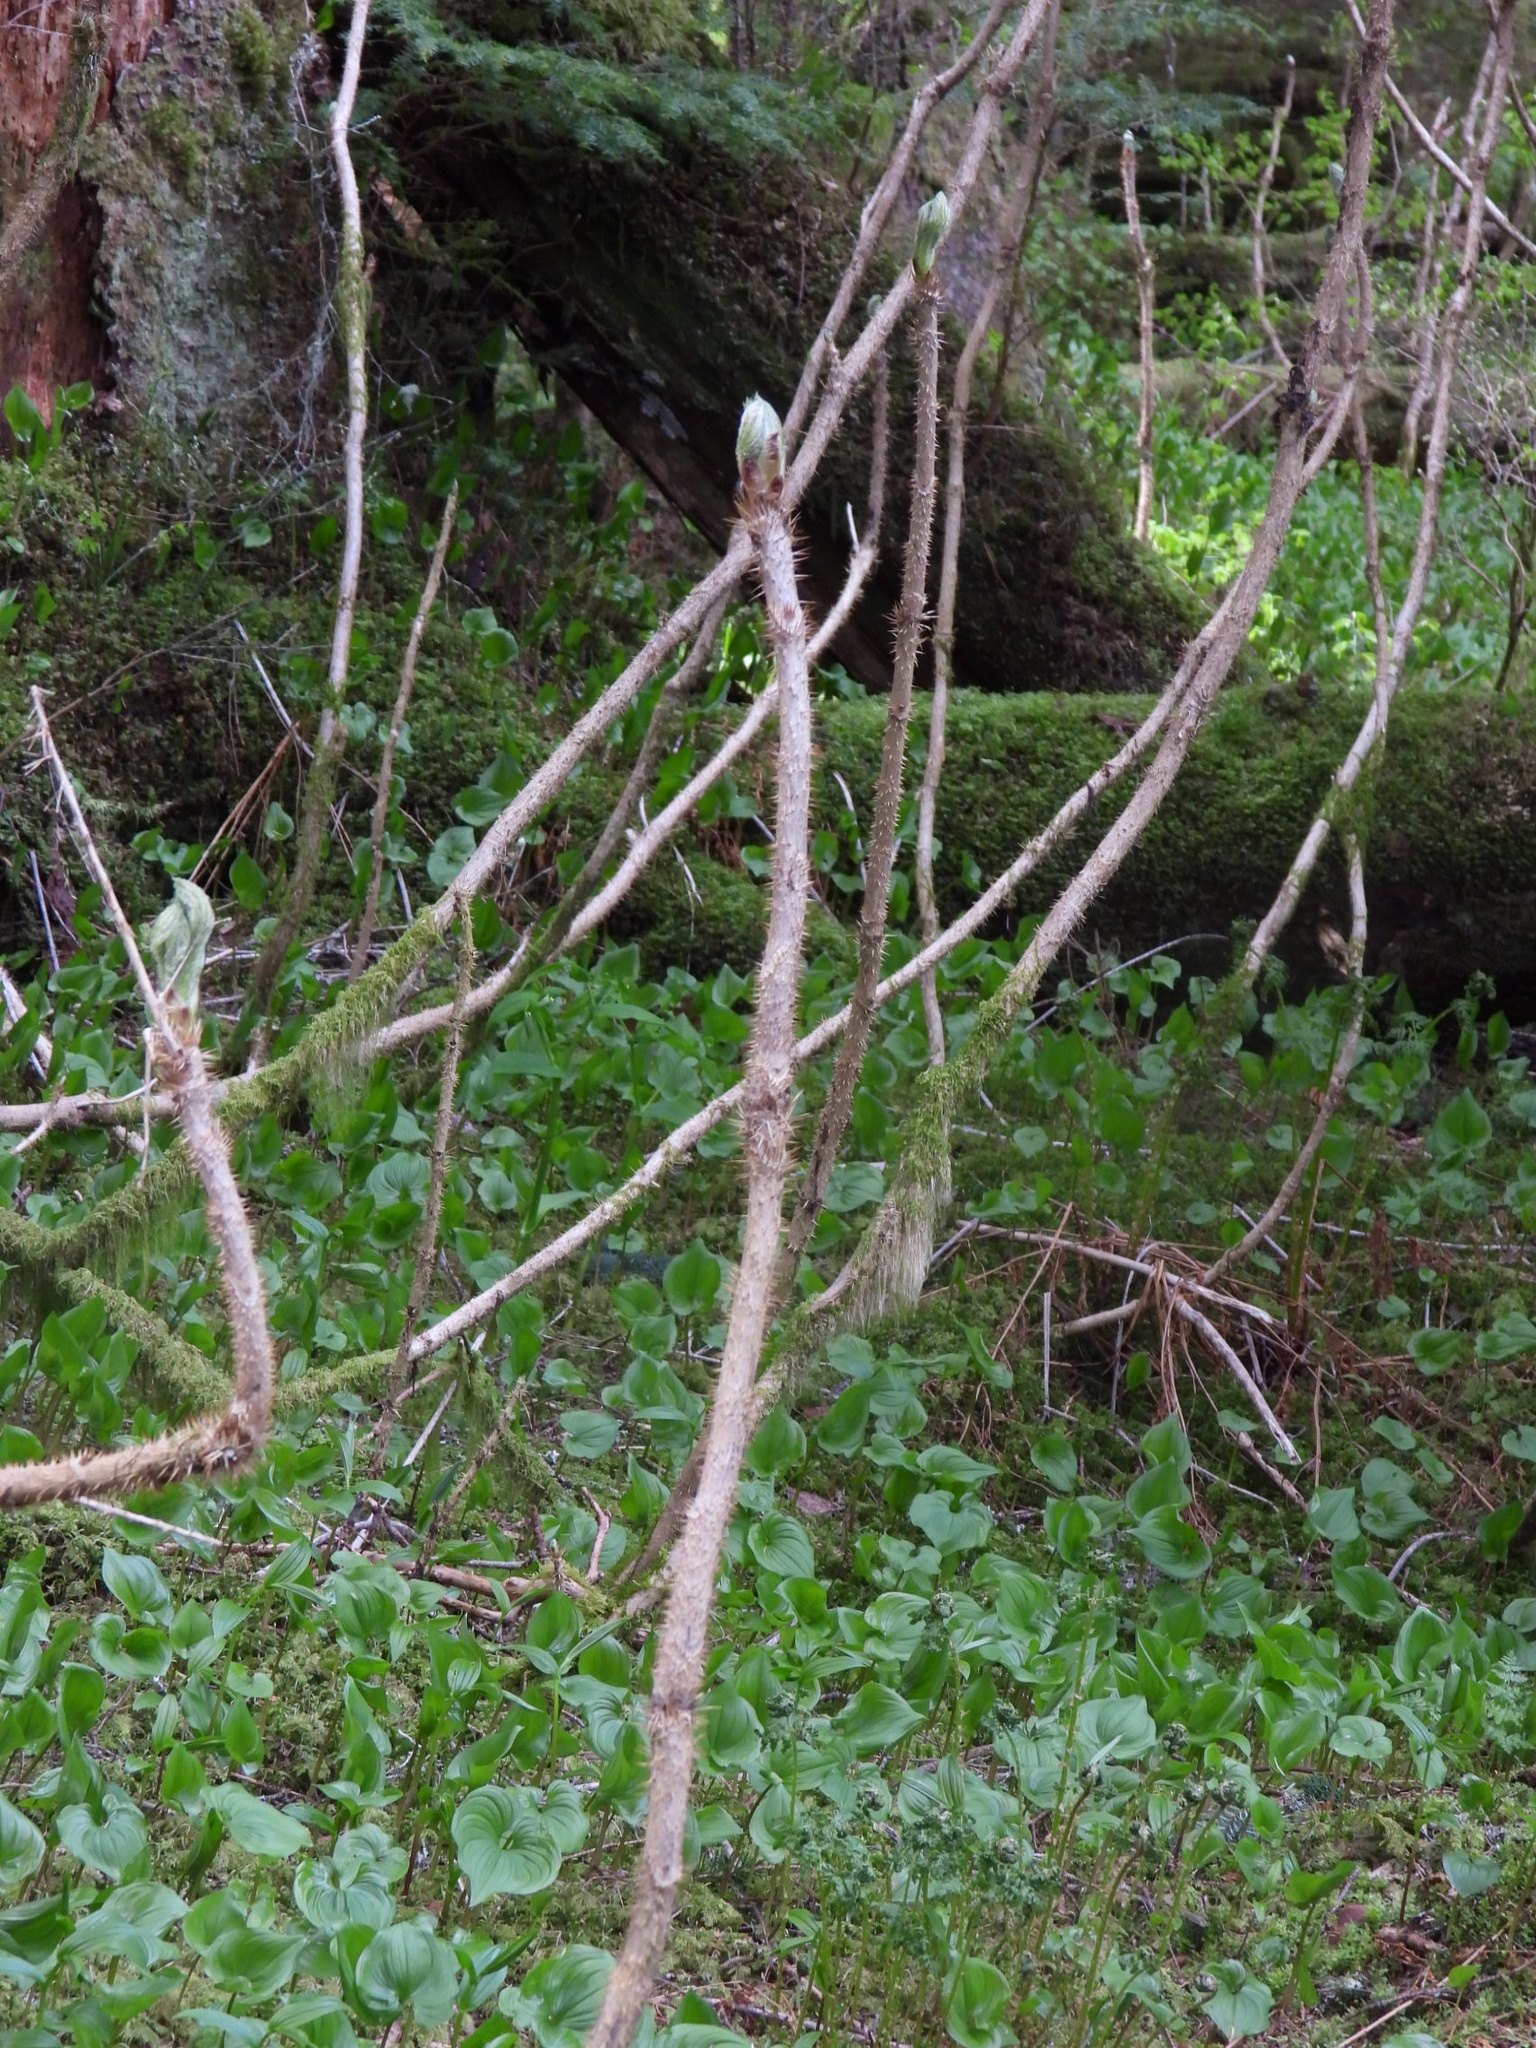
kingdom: Plantae
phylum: Tracheophyta
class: Magnoliopsida
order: Apiales
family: Araliaceae
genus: Oplopanax
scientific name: Oplopanax horridus
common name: Devil's walking-stick
